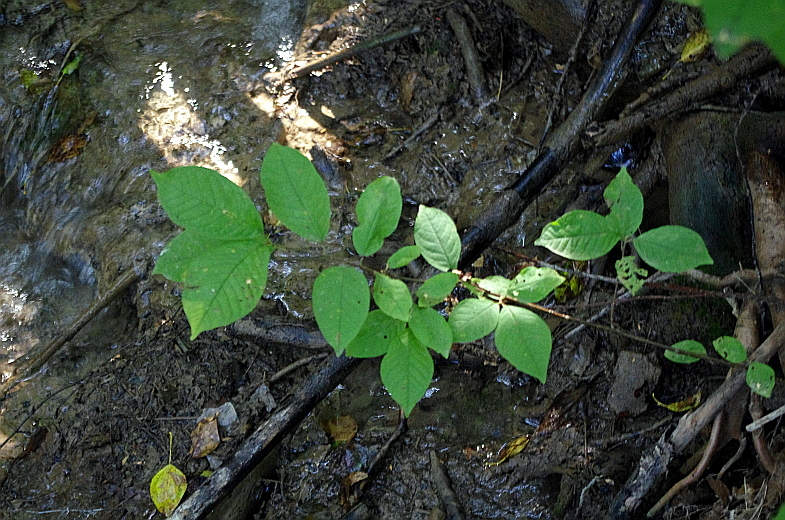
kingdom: Plantae
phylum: Tracheophyta
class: Magnoliopsida
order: Rosales
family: Rosaceae
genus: Prunus
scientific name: Prunus padus
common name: Bird cherry
